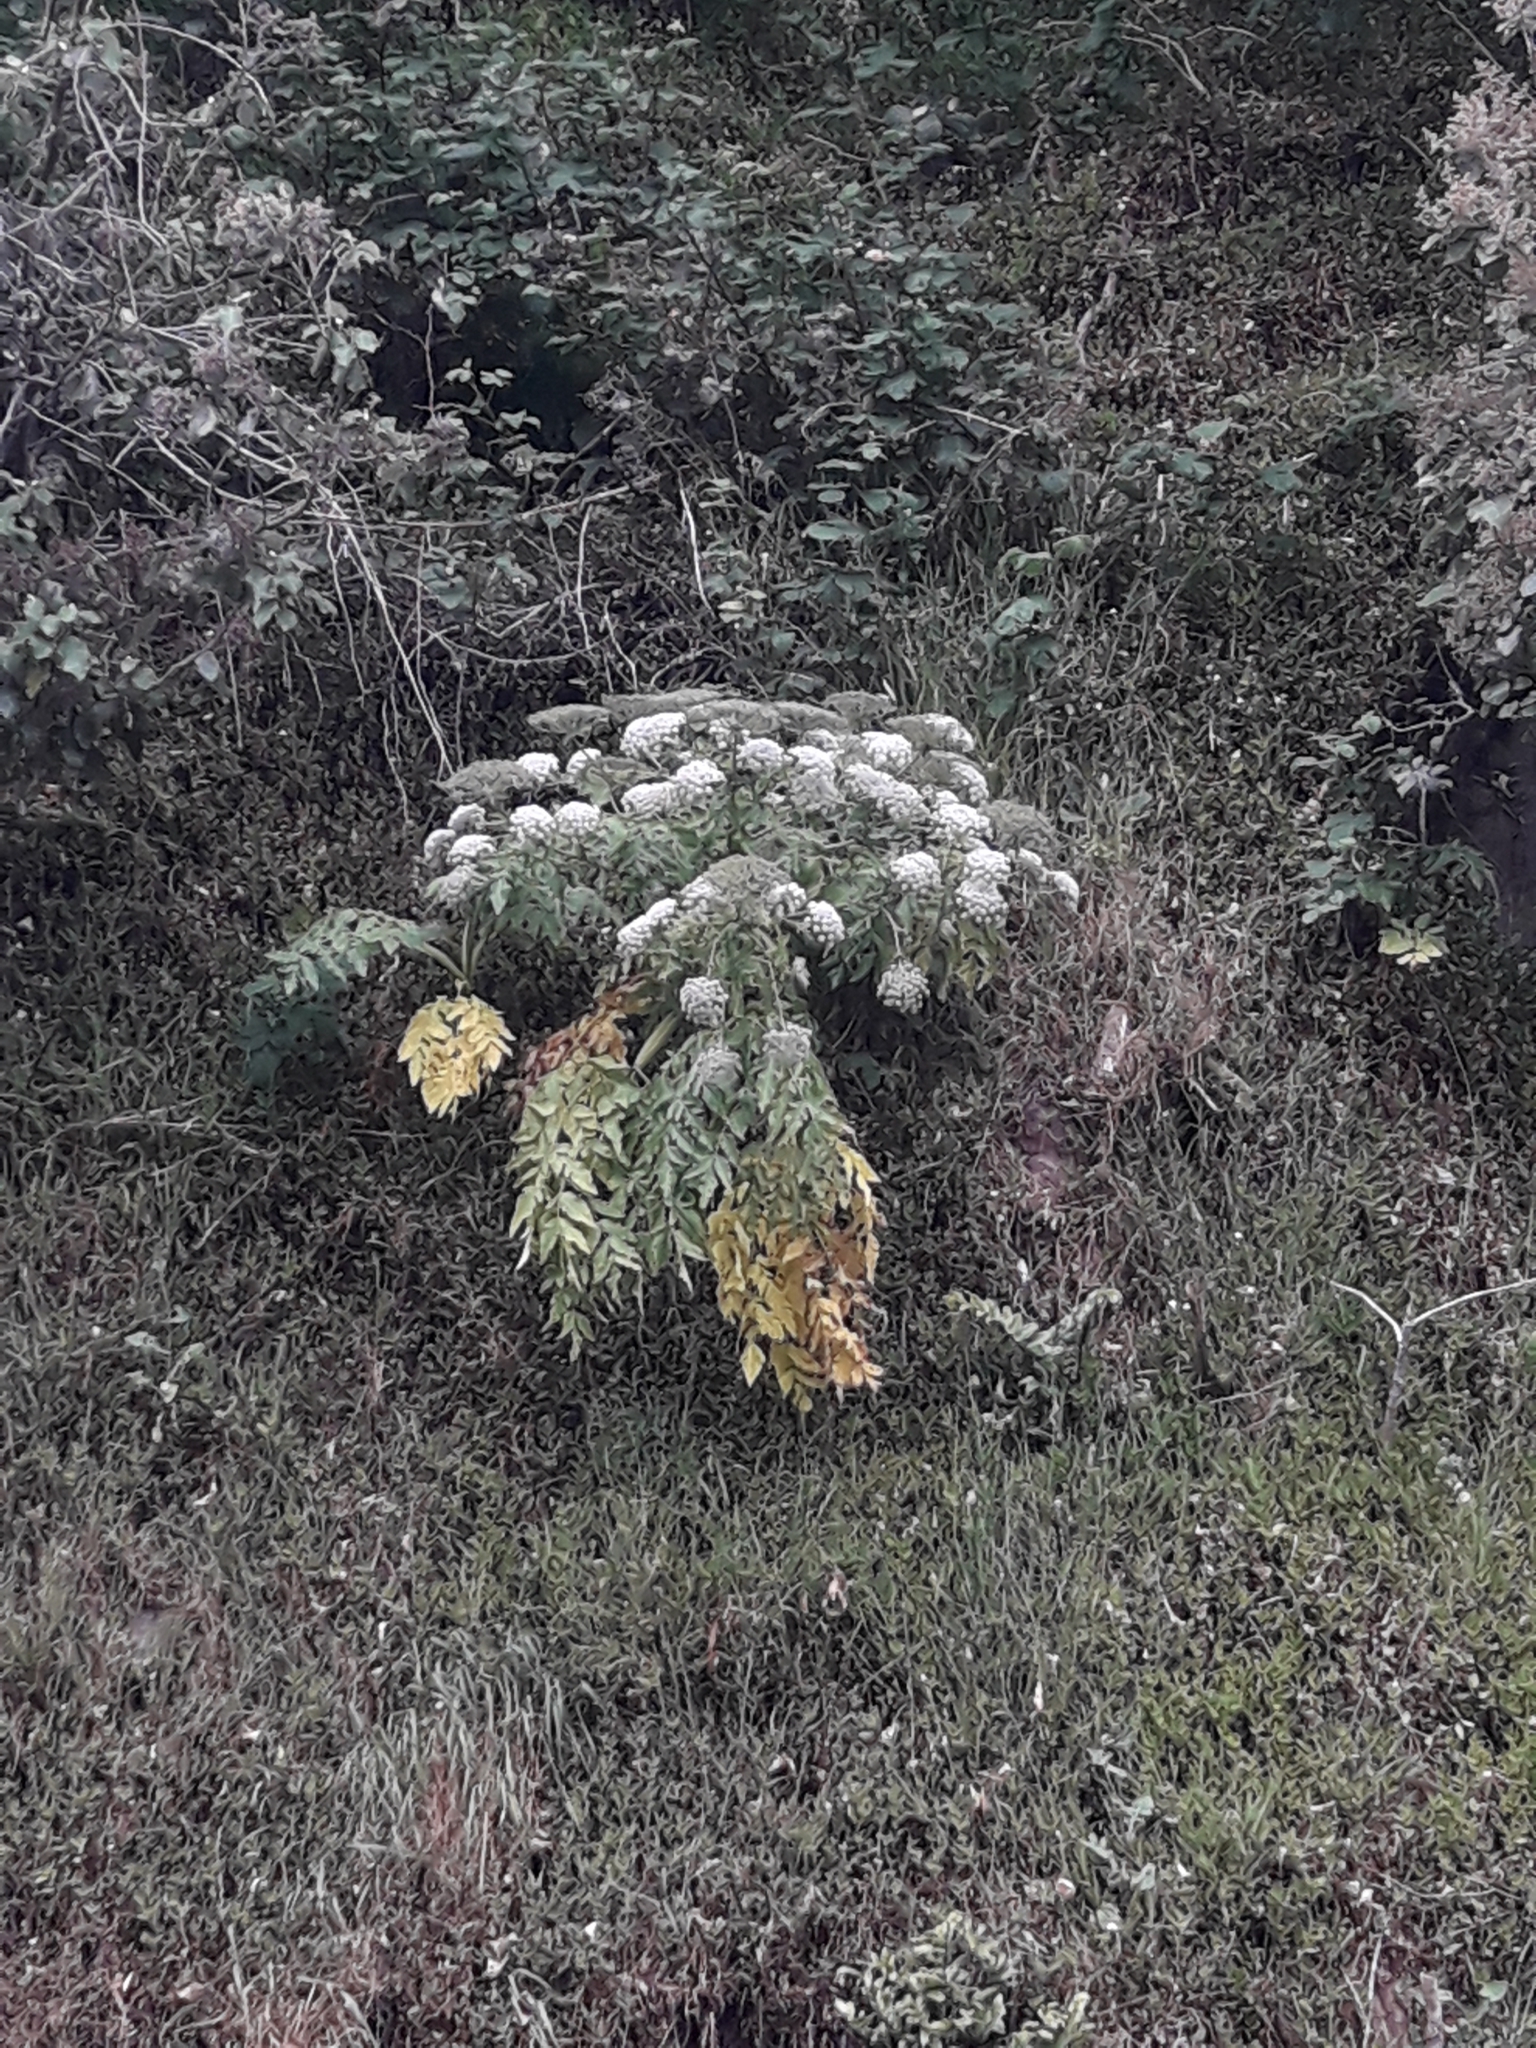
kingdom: Plantae
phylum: Tracheophyta
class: Magnoliopsida
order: Apiales
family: Apiaceae
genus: Daucus
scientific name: Daucus decipiens
